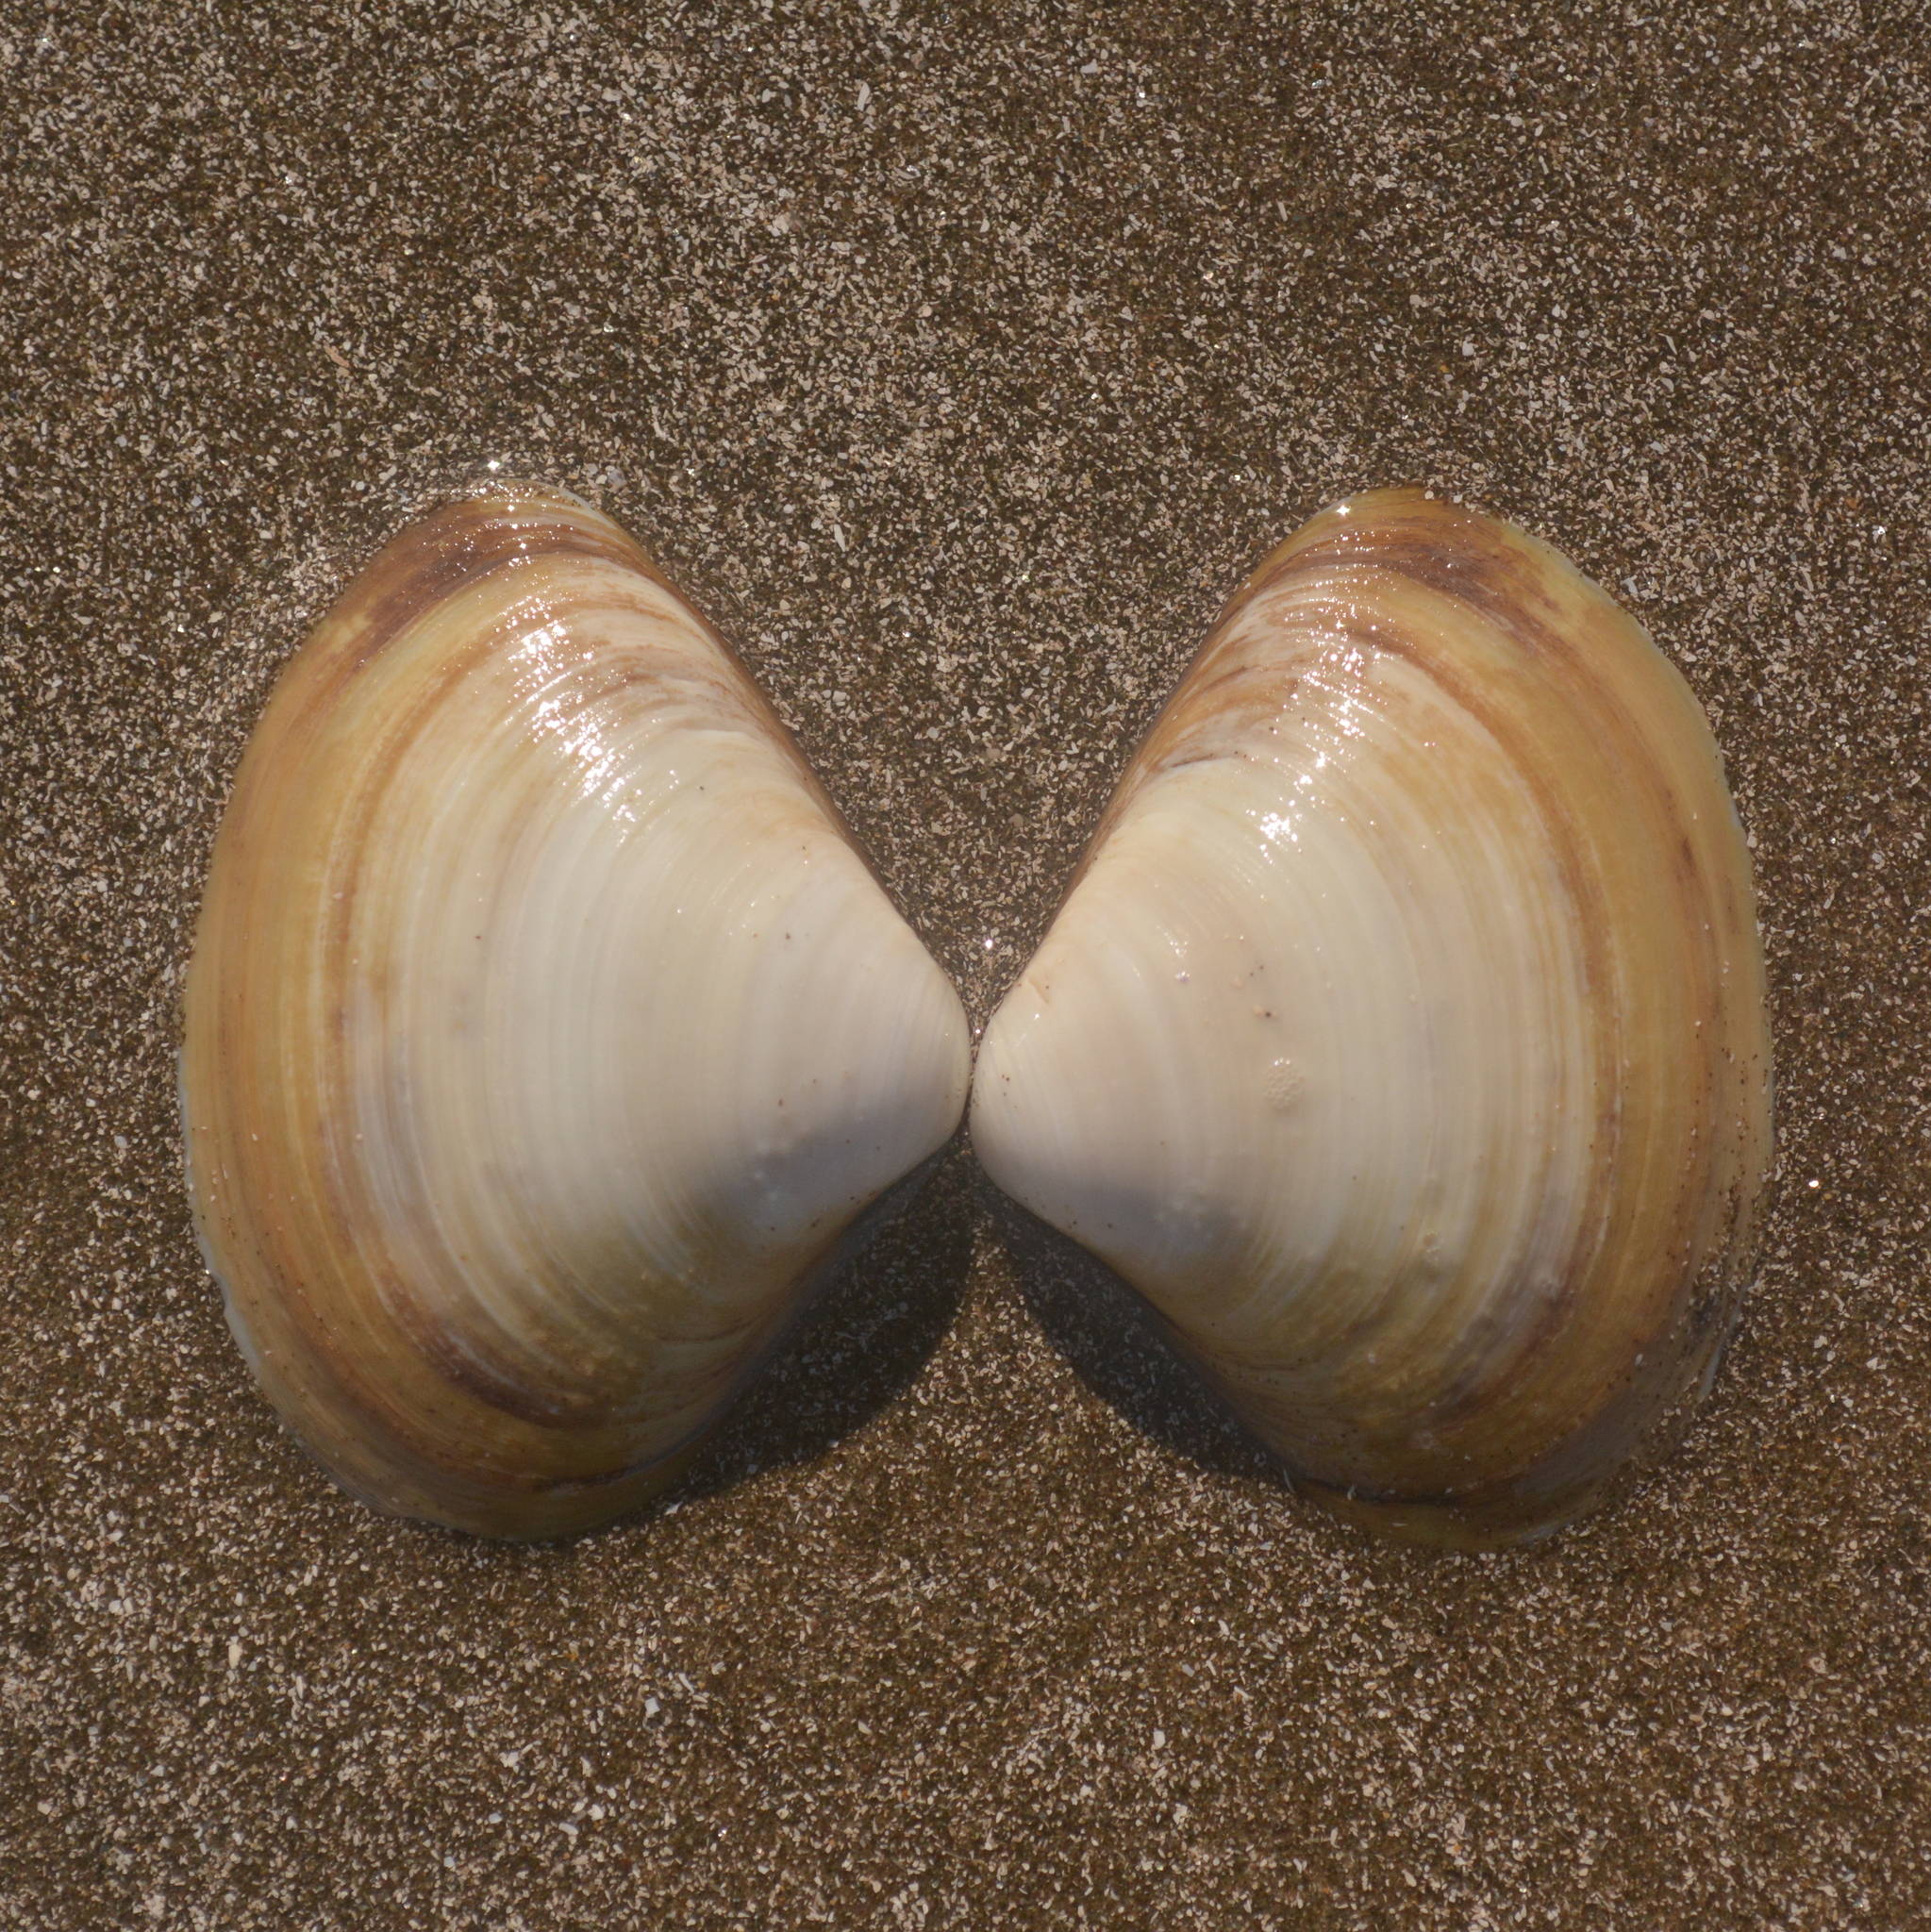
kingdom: Animalia
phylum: Mollusca
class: Bivalvia
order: Venerida
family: Mactridae
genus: Mactra
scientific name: Mactra isabelleana
